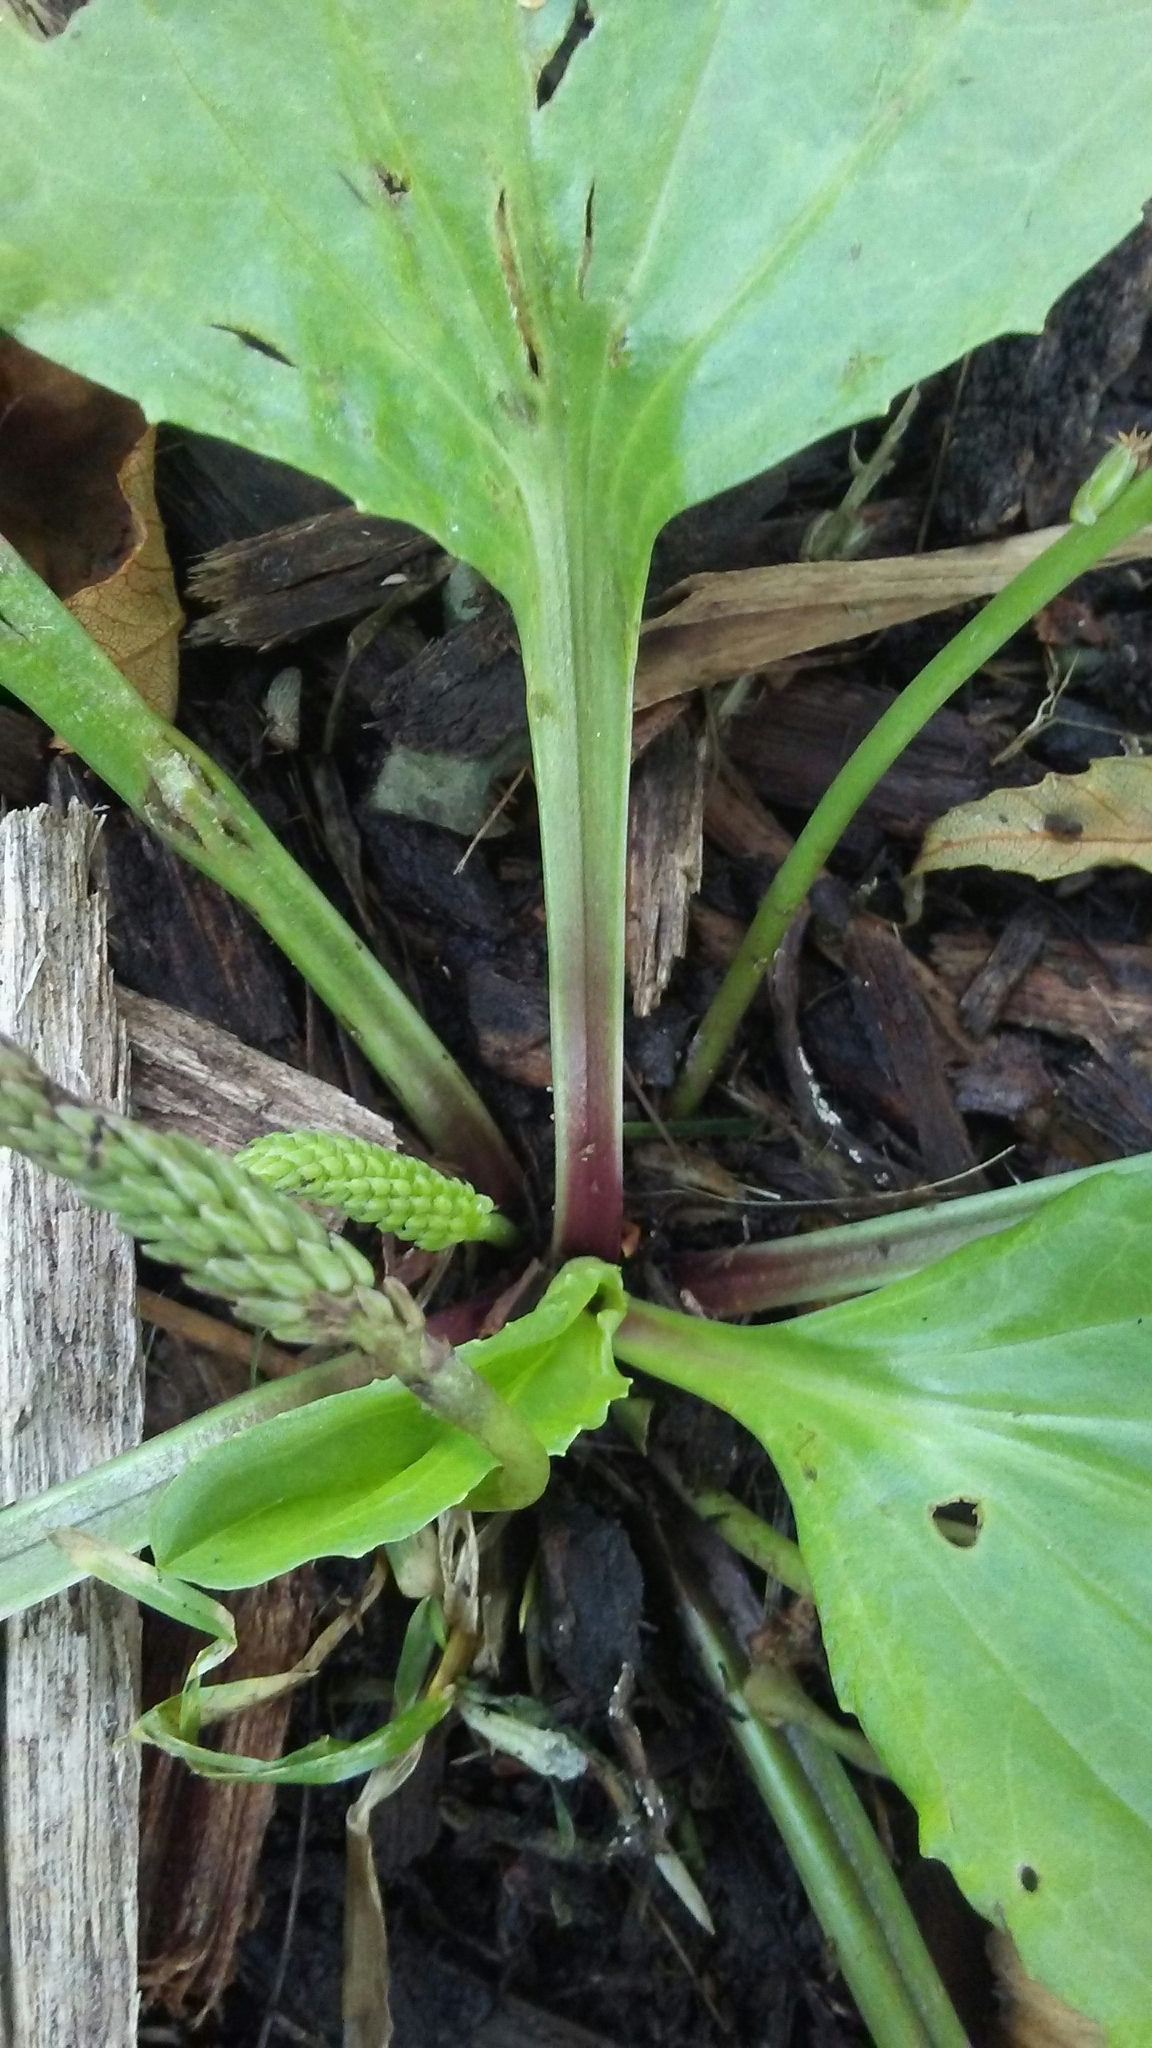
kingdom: Plantae
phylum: Tracheophyta
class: Magnoliopsida
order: Lamiales
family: Plantaginaceae
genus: Plantago
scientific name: Plantago rugelii
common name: American plantain
